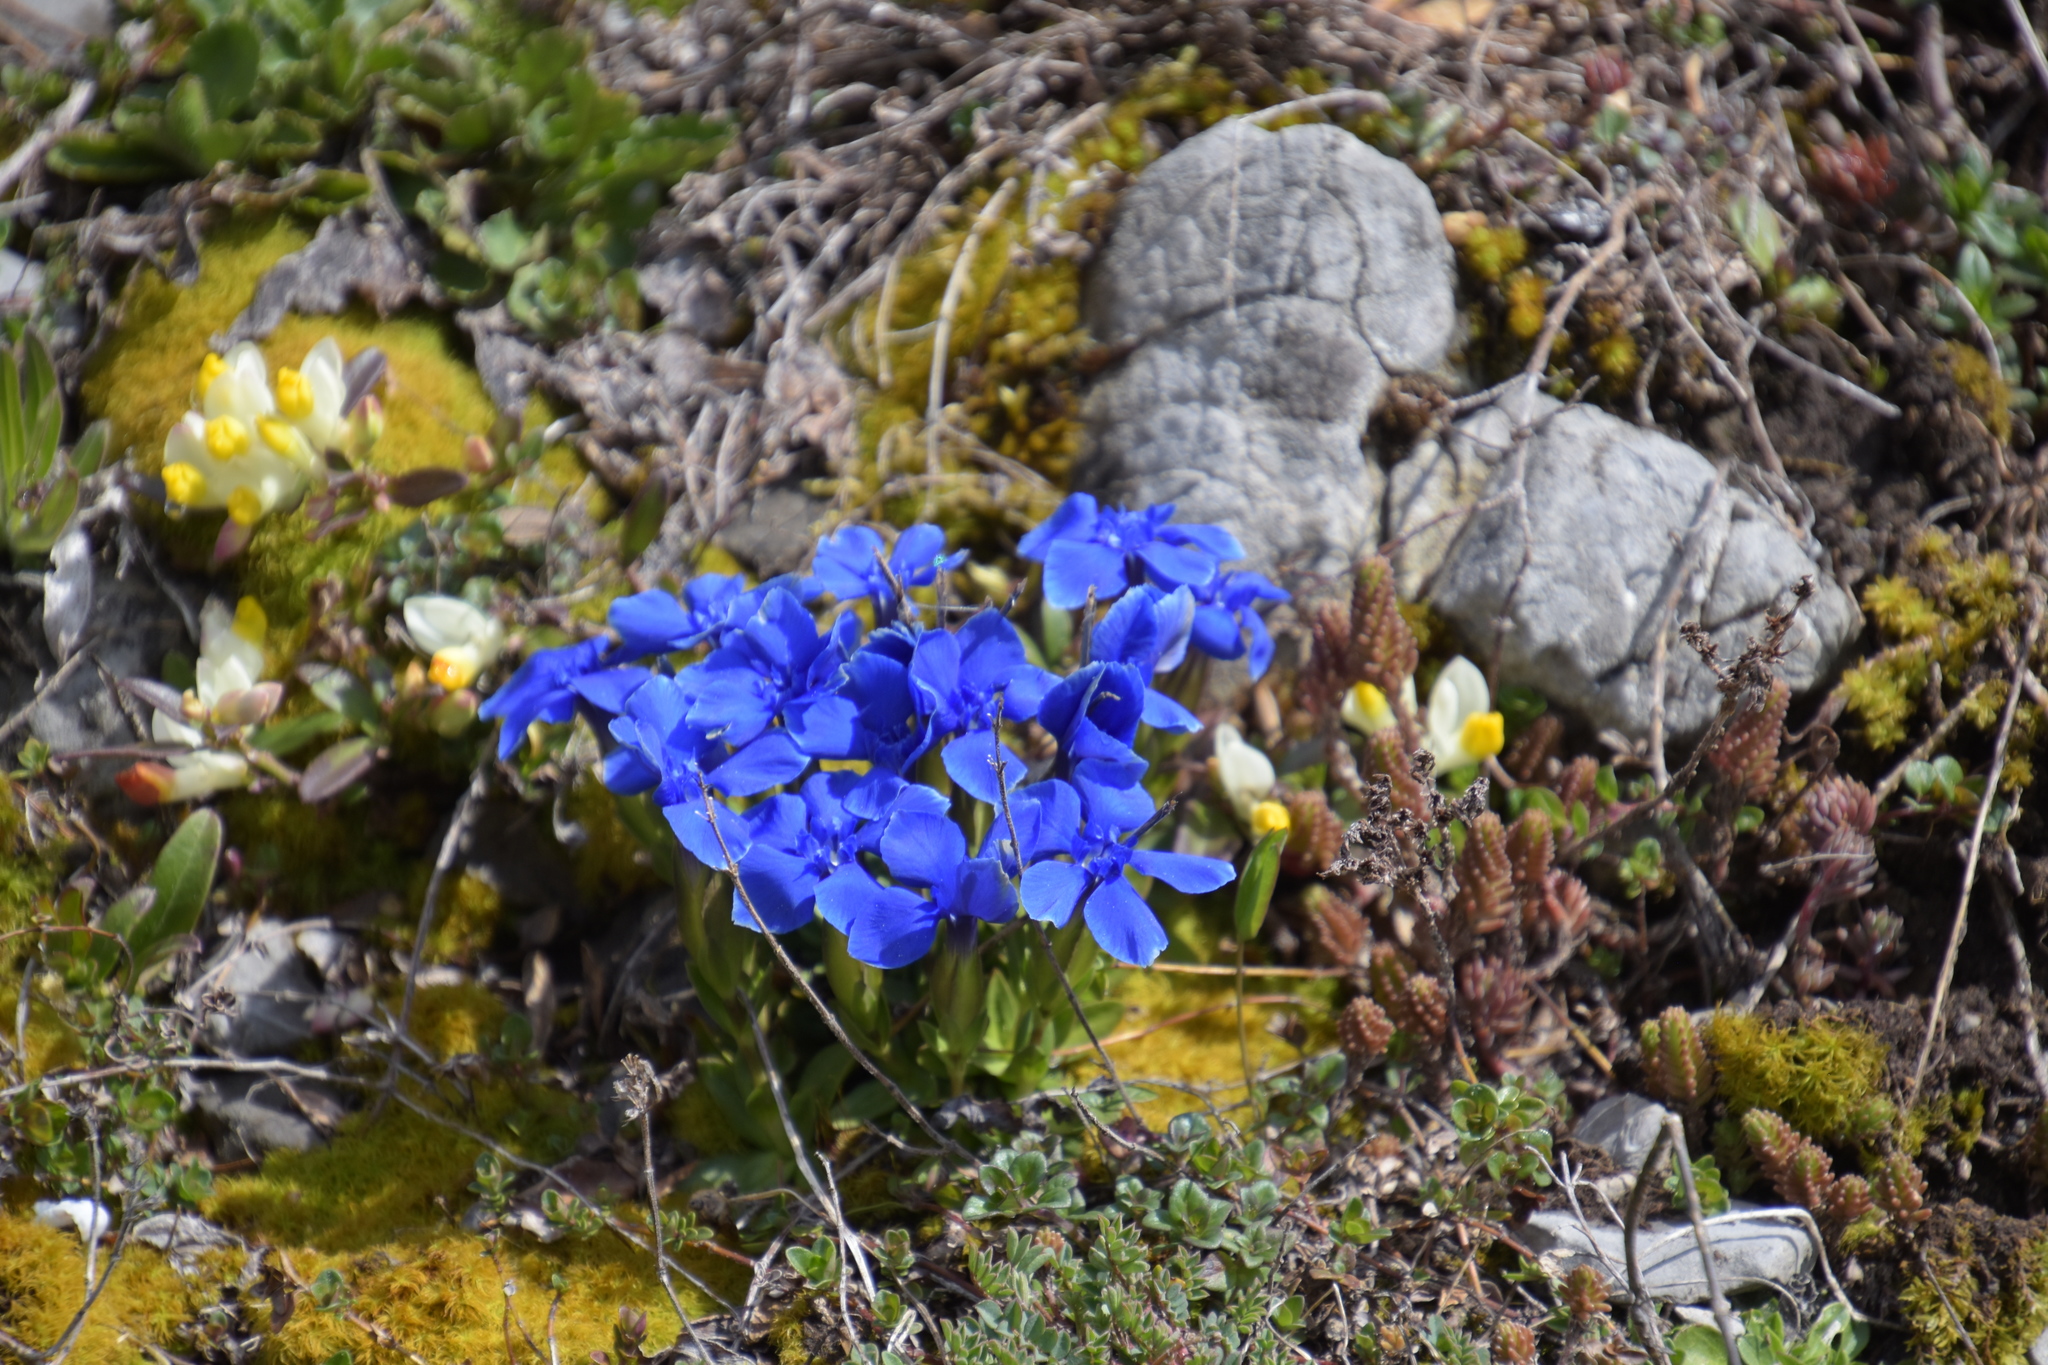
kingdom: Plantae
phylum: Tracheophyta
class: Magnoliopsida
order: Gentianales
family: Gentianaceae
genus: Gentiana
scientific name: Gentiana verna
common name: Spring gentian
